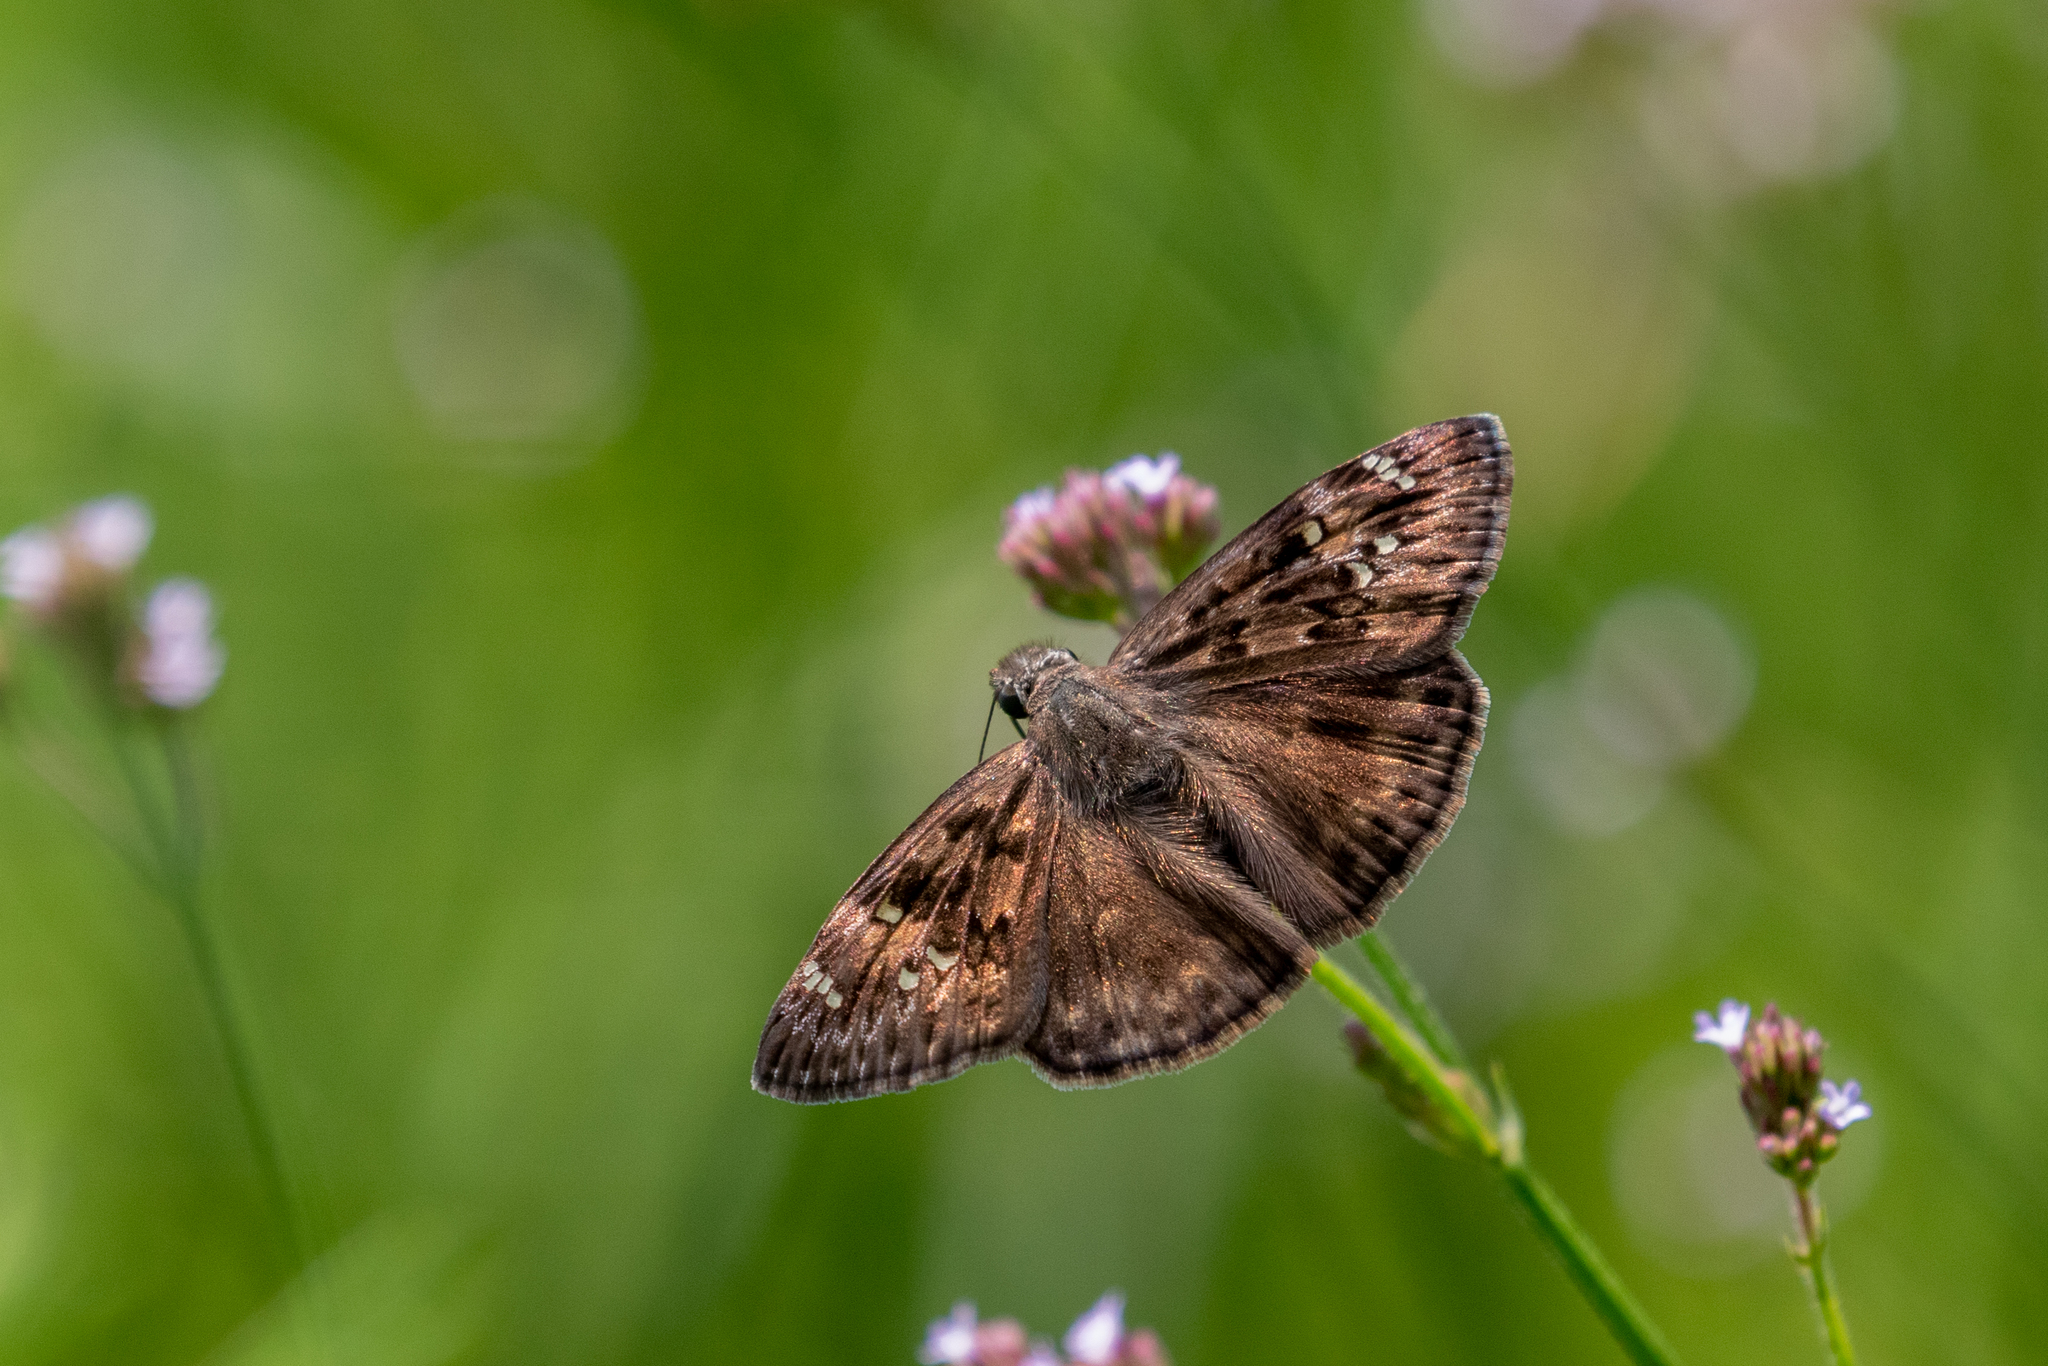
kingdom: Animalia
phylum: Arthropoda
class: Insecta
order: Lepidoptera
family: Hesperiidae
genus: Erynnis
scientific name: Erynnis horatius
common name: Horace's duskywing
